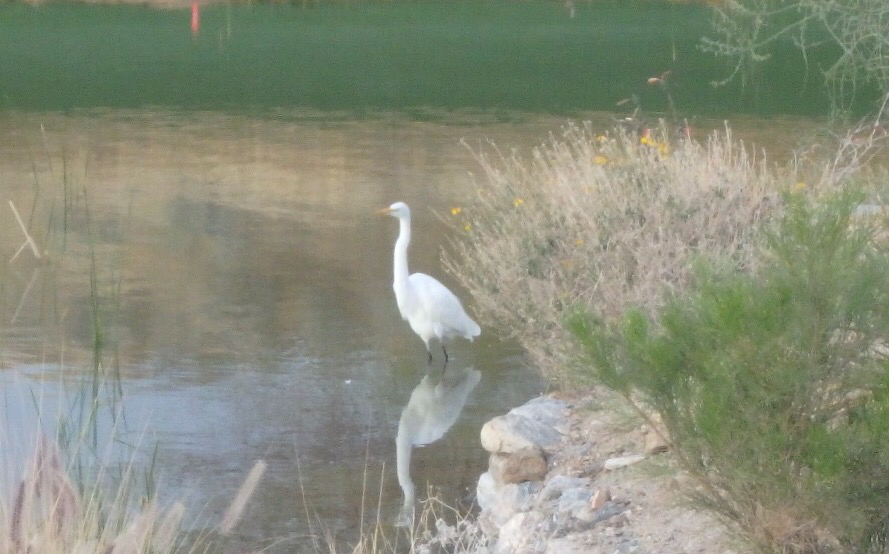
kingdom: Animalia
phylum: Chordata
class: Aves
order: Pelecaniformes
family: Ardeidae
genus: Ardea
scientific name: Ardea alba
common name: Great egret
